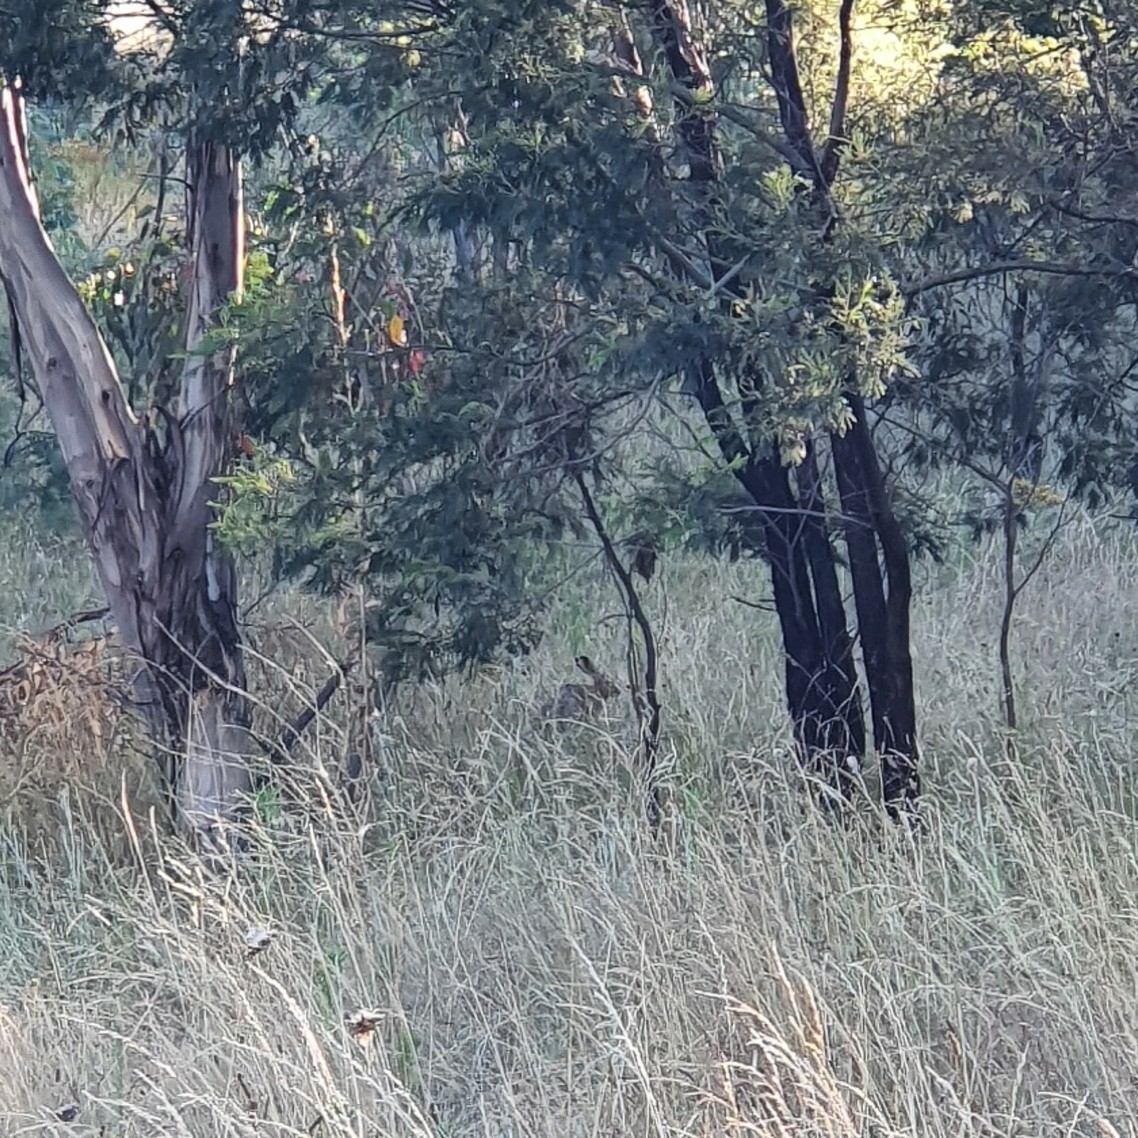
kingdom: Animalia
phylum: Chordata
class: Mammalia
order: Lagomorpha
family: Leporidae
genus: Lepus
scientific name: Lepus europaeus
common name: European hare
